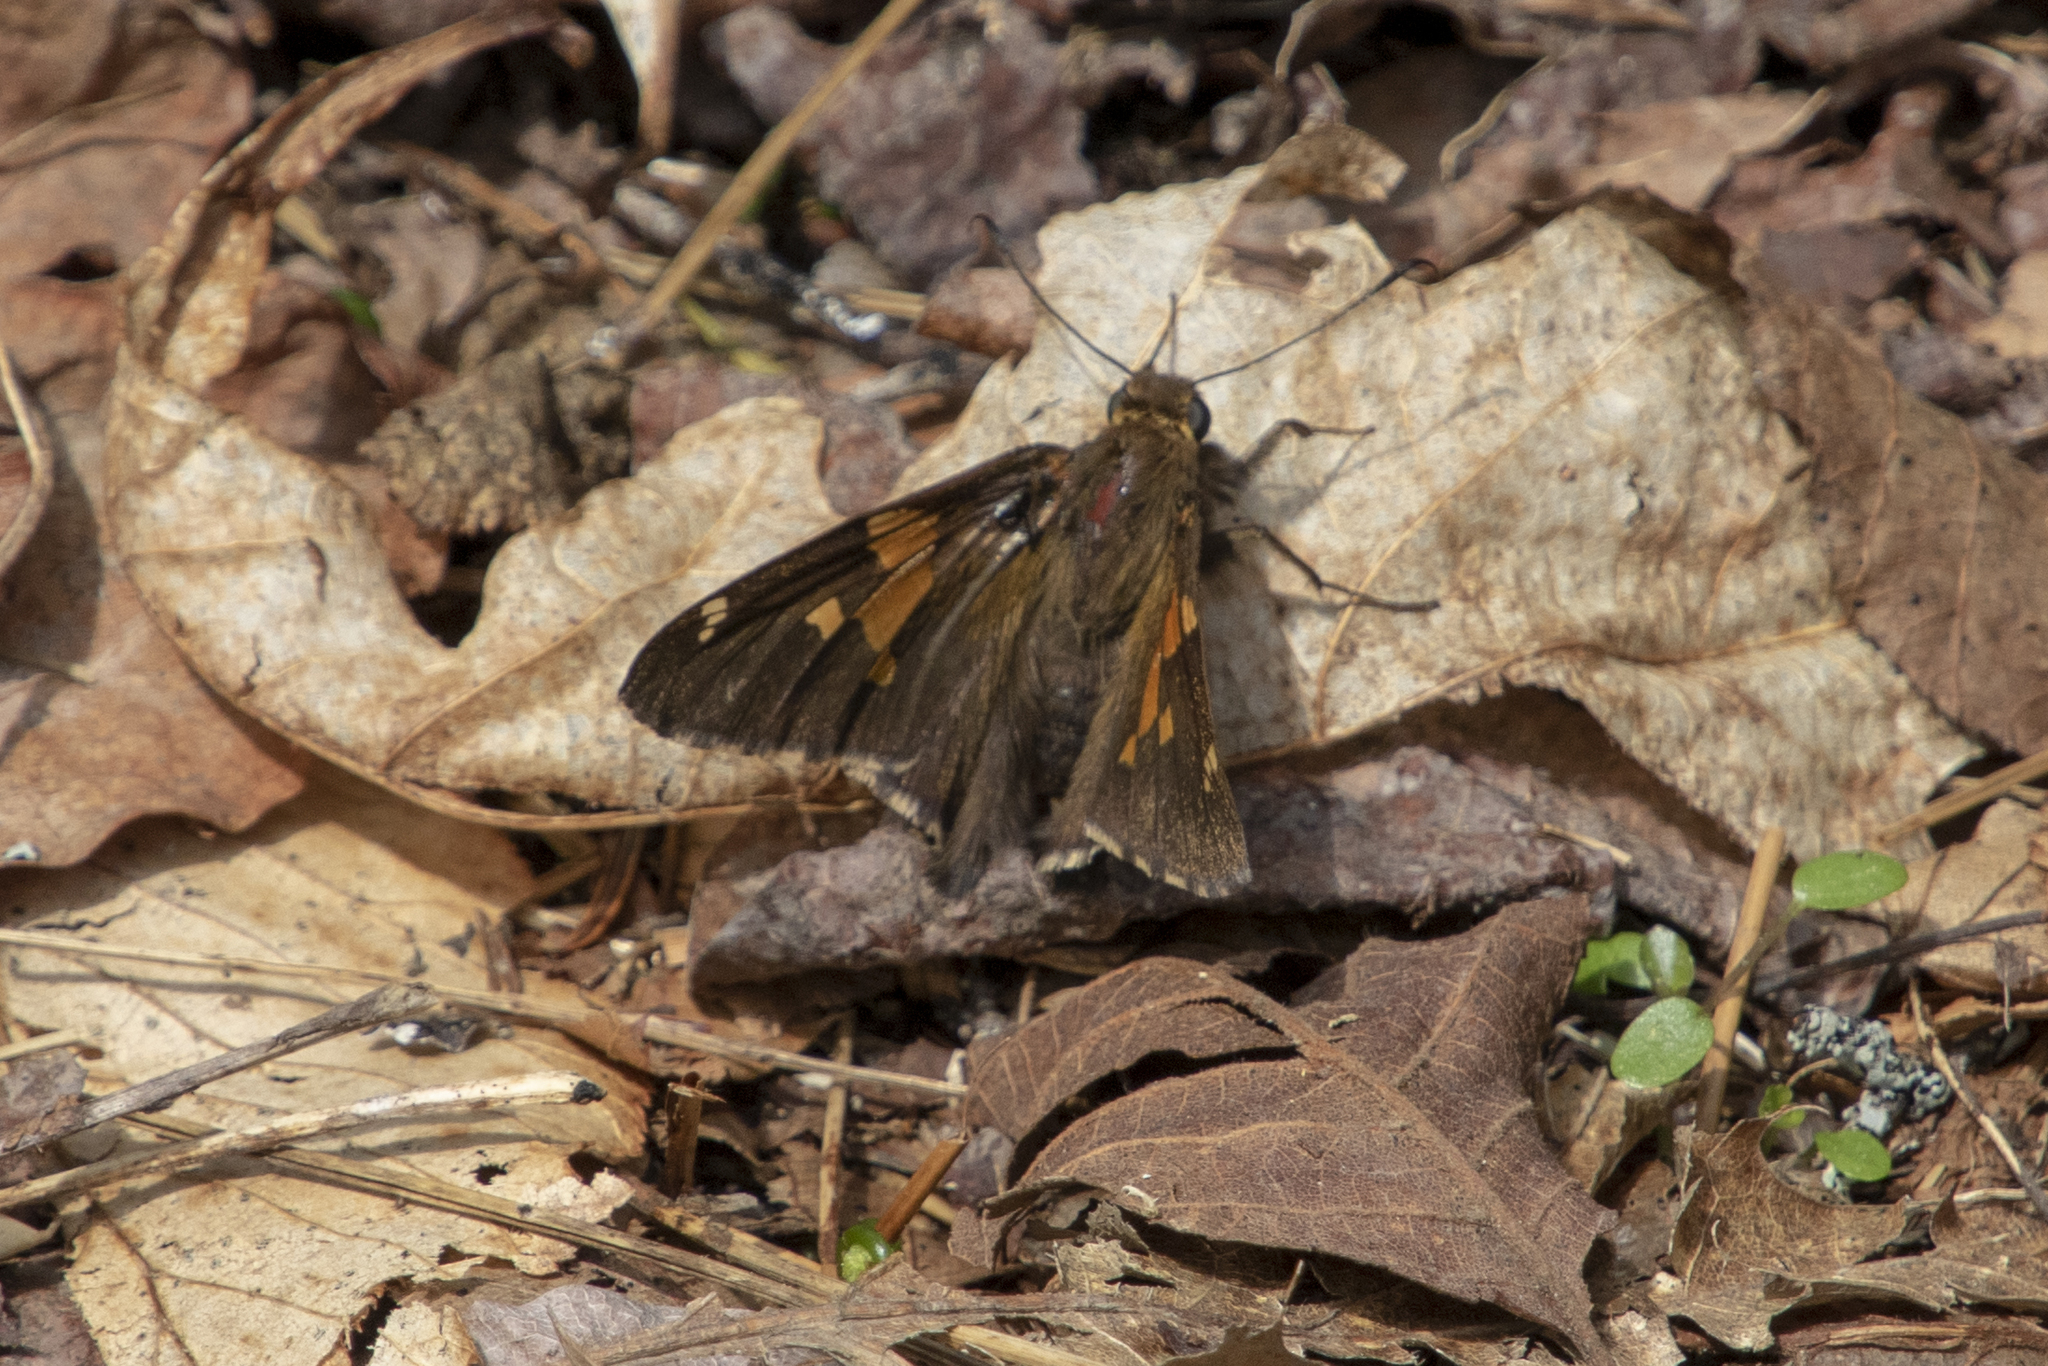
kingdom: Animalia
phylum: Arthropoda
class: Insecta
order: Lepidoptera
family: Hesperiidae
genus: Epargyreus
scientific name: Epargyreus clarus
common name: Silver-spotted skipper
